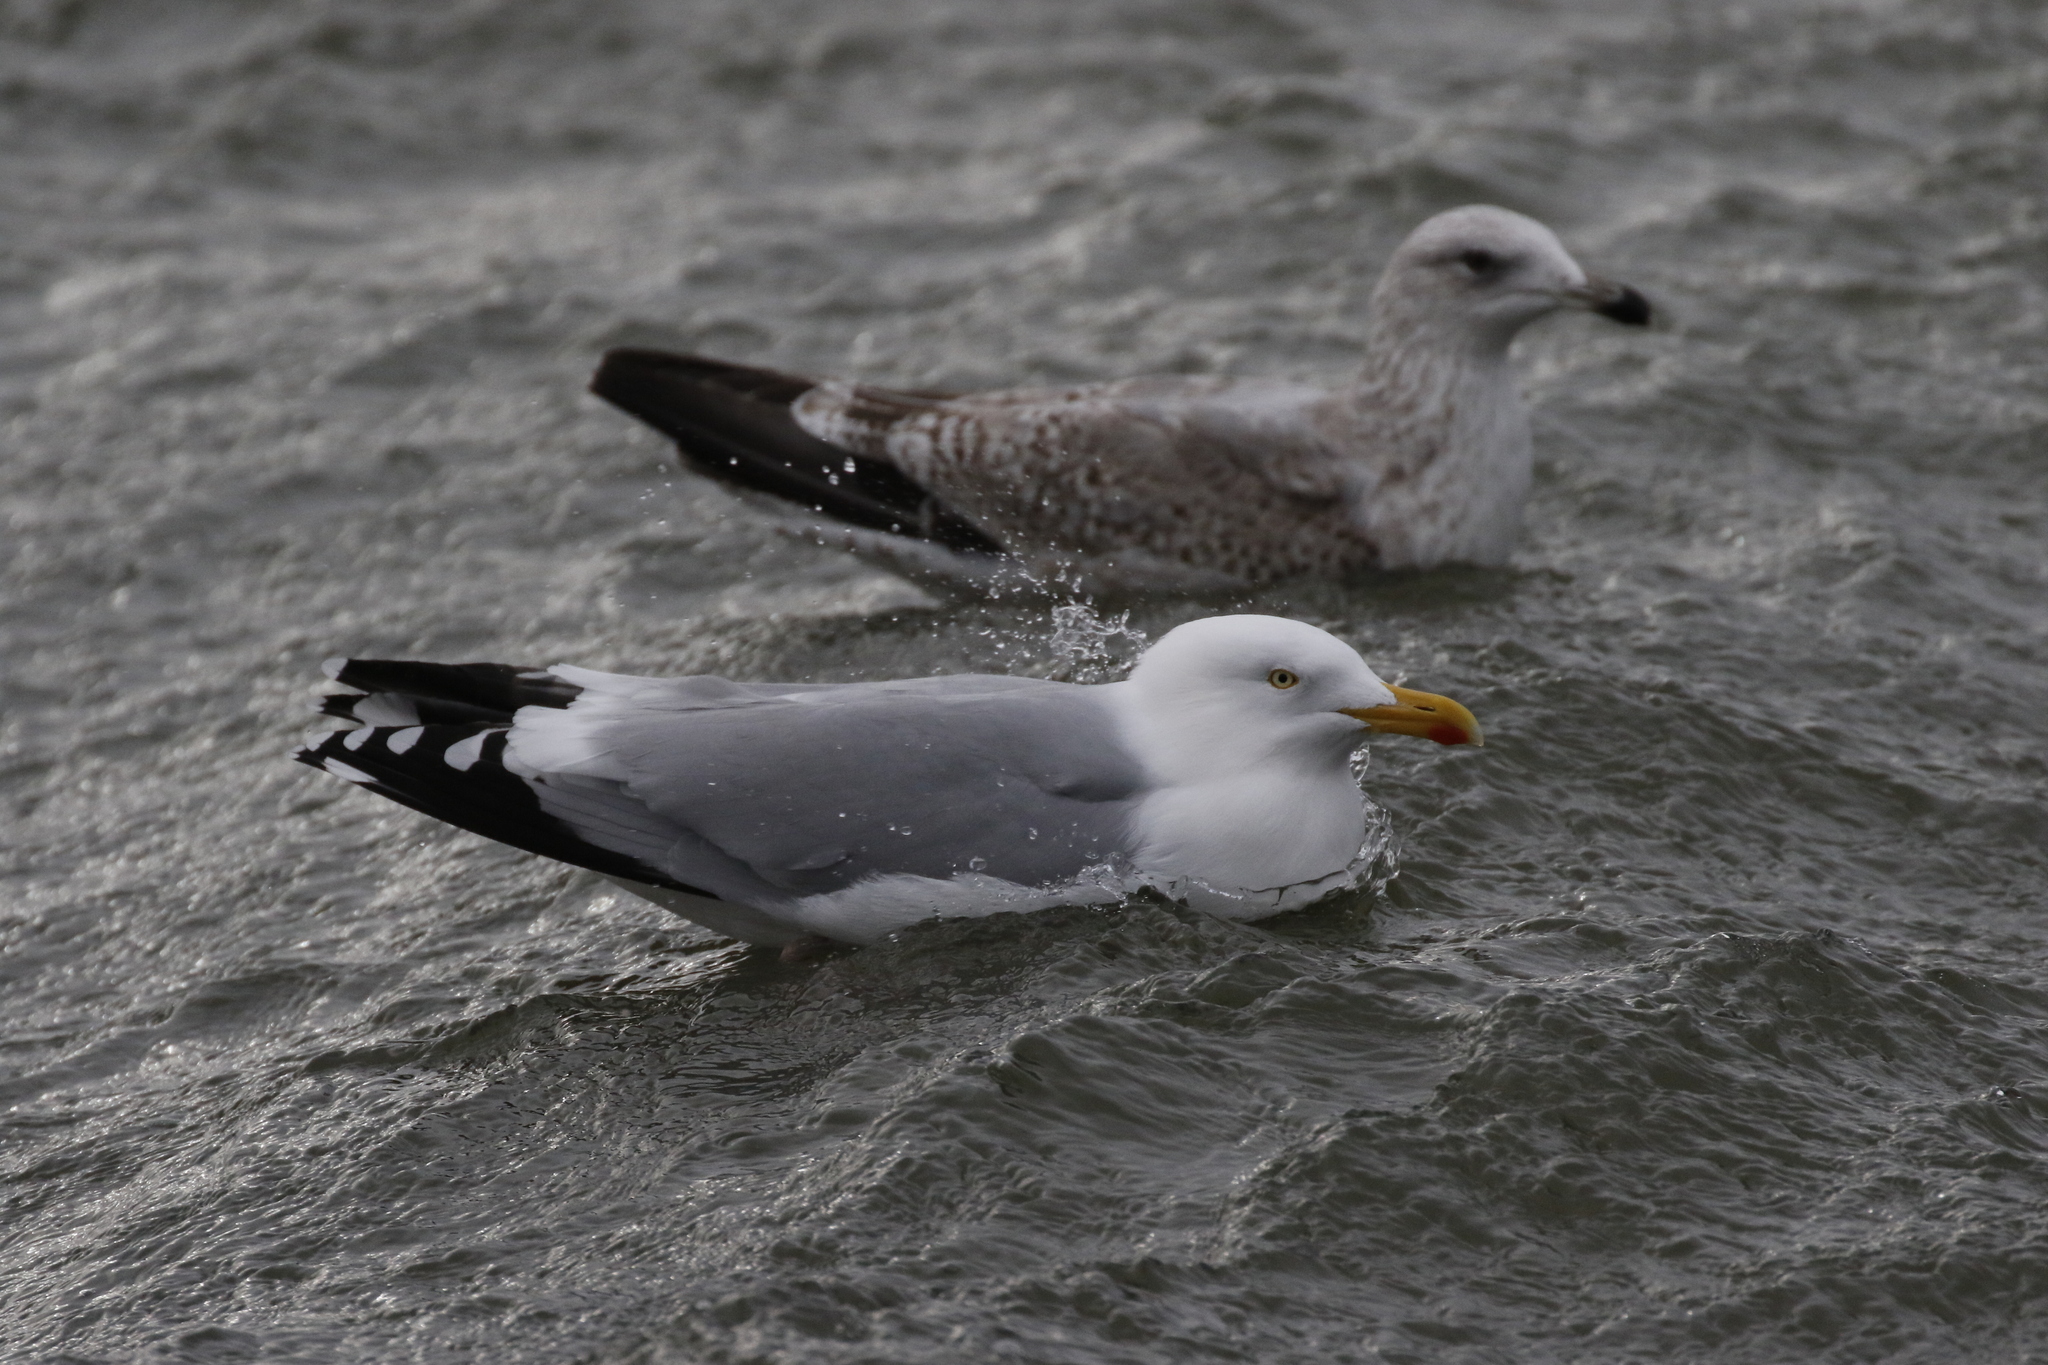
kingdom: Animalia
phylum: Chordata
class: Aves
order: Charadriiformes
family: Laridae
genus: Larus
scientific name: Larus argentatus
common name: Herring gull
